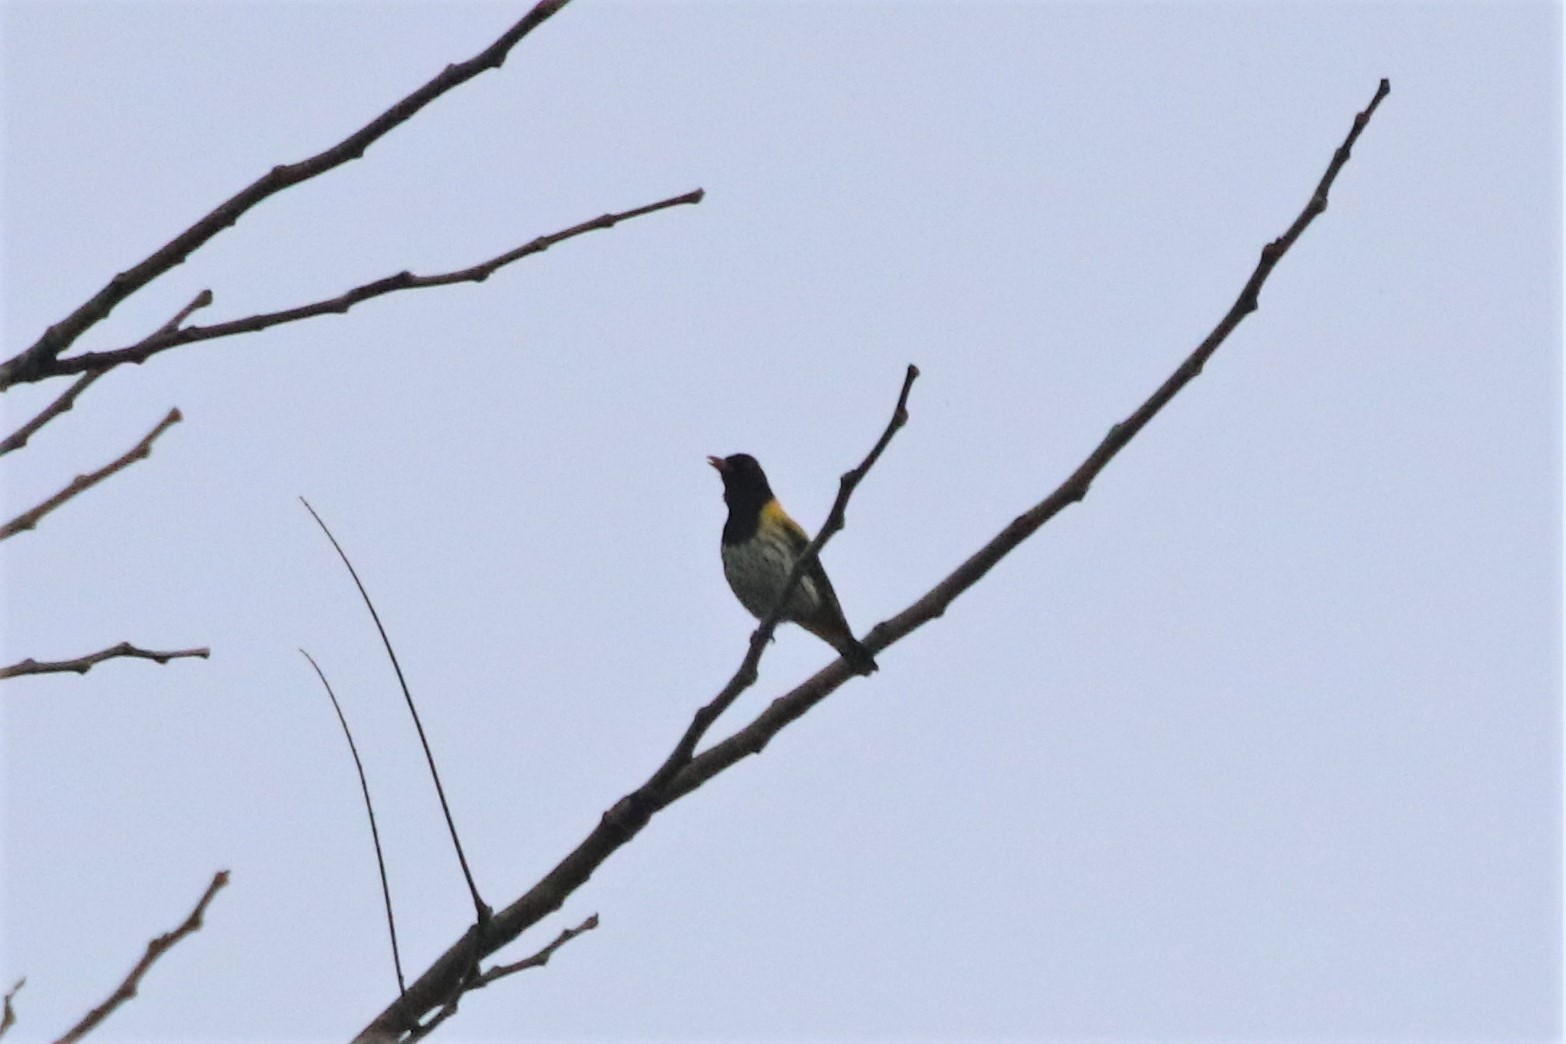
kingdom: Animalia
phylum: Chordata
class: Aves
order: Passeriformes
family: Oriolidae
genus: Oriolus
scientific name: Oriolus xanthonotus
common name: Dark-throated oriole
